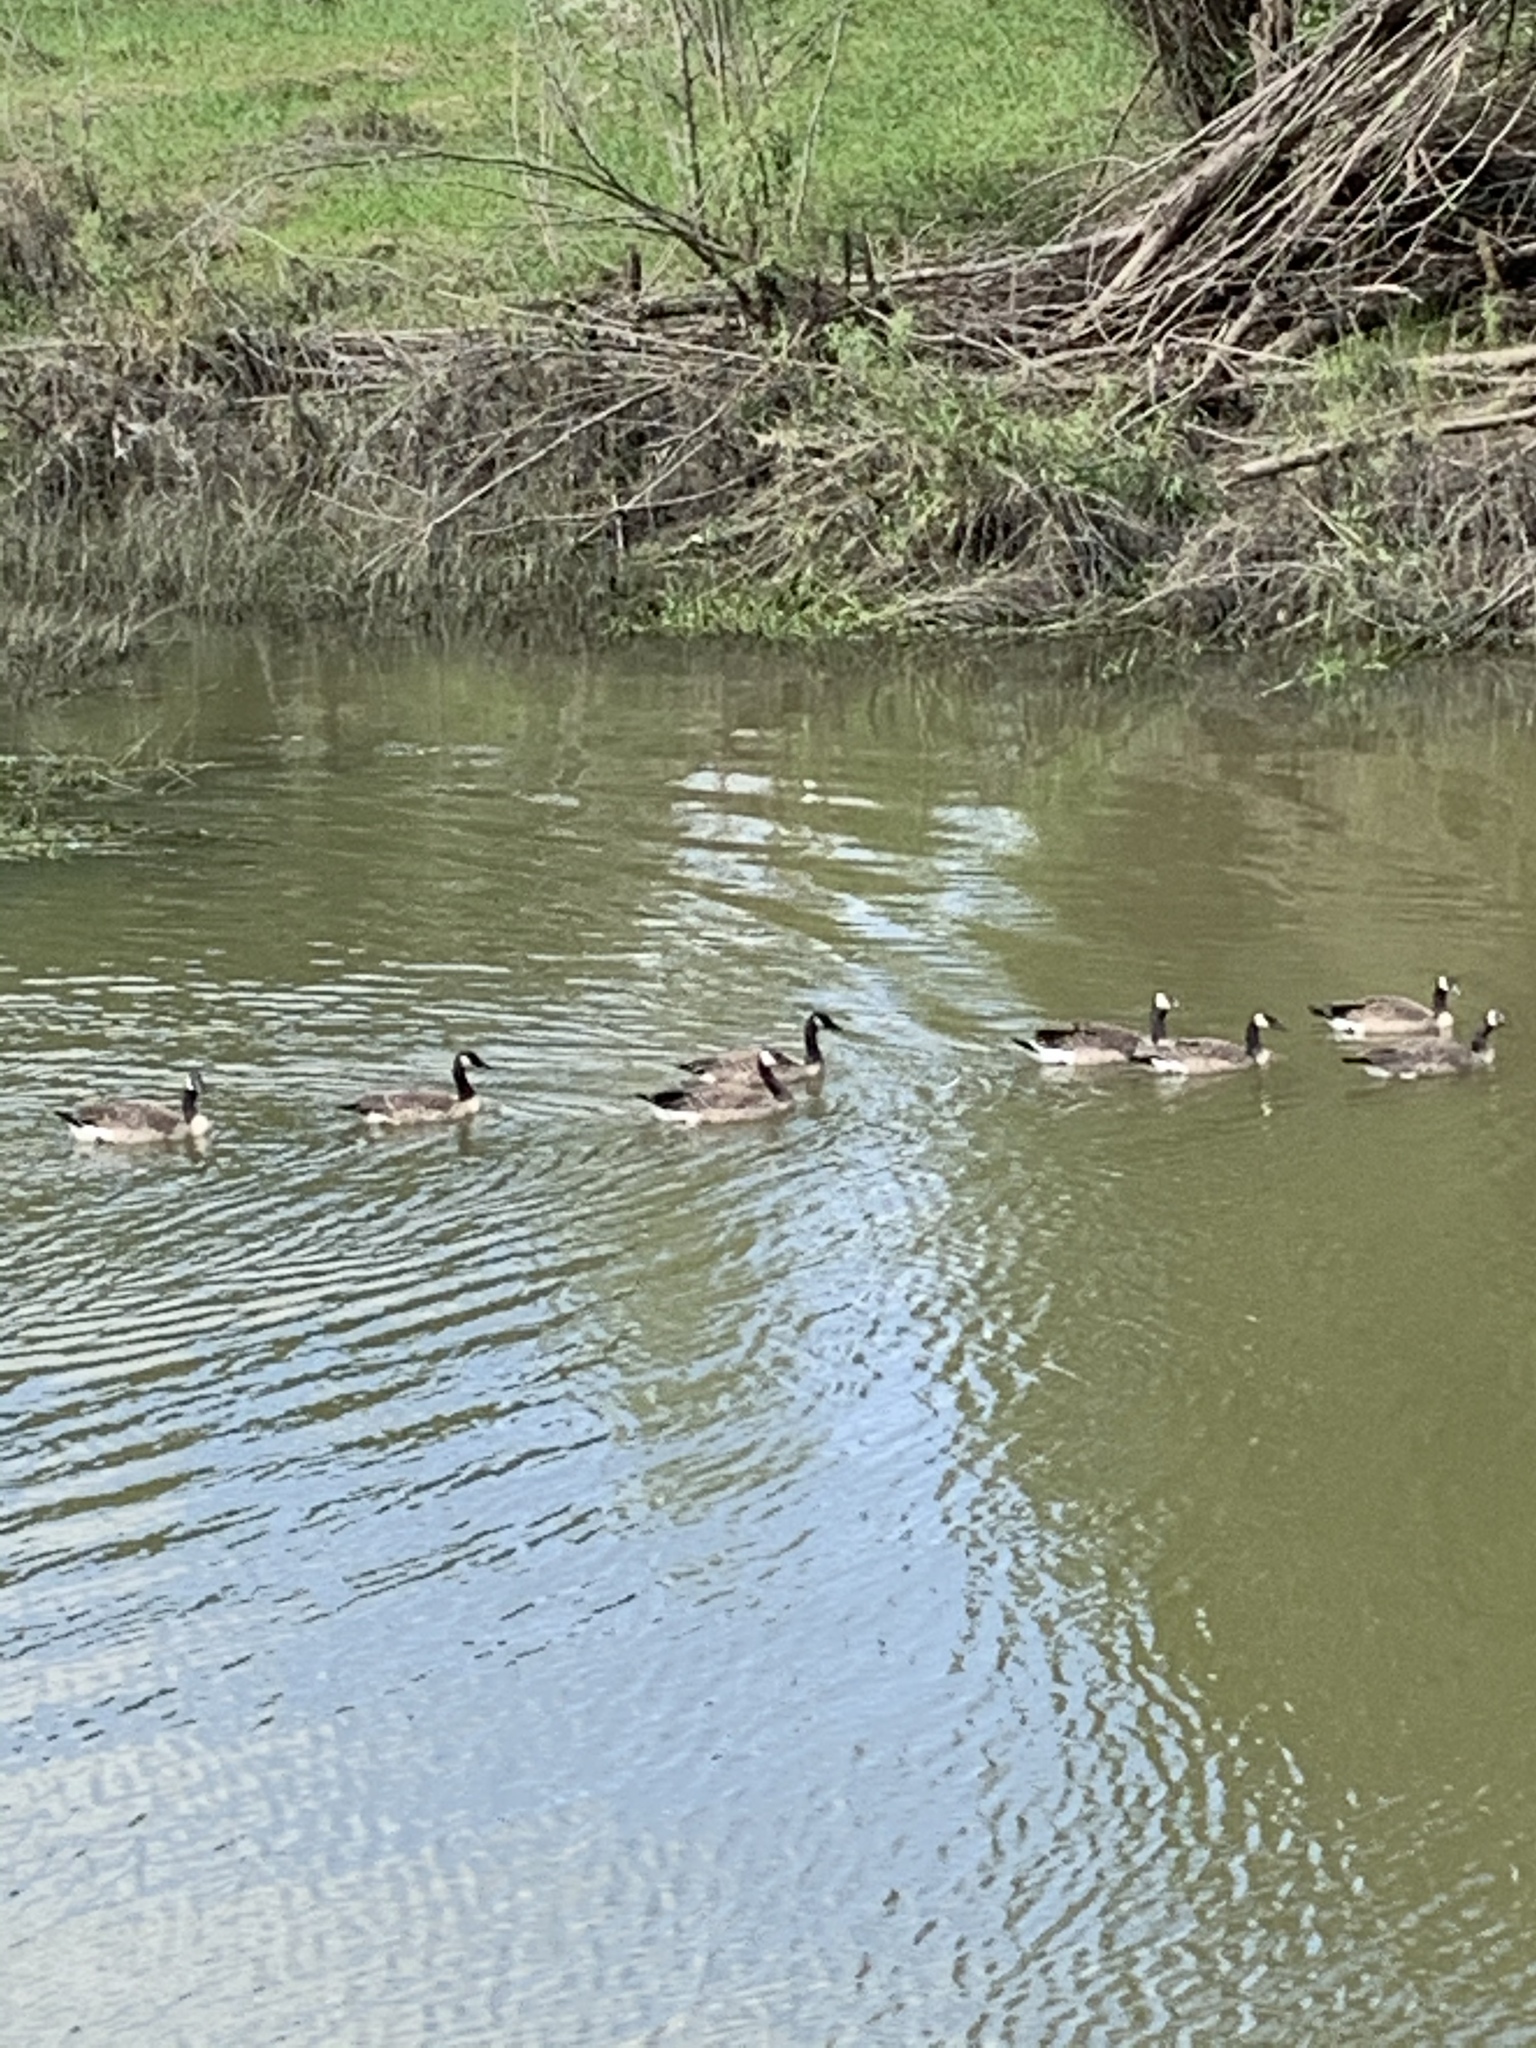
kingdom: Animalia
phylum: Chordata
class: Aves
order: Anseriformes
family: Anatidae
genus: Branta
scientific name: Branta canadensis
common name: Canada goose
